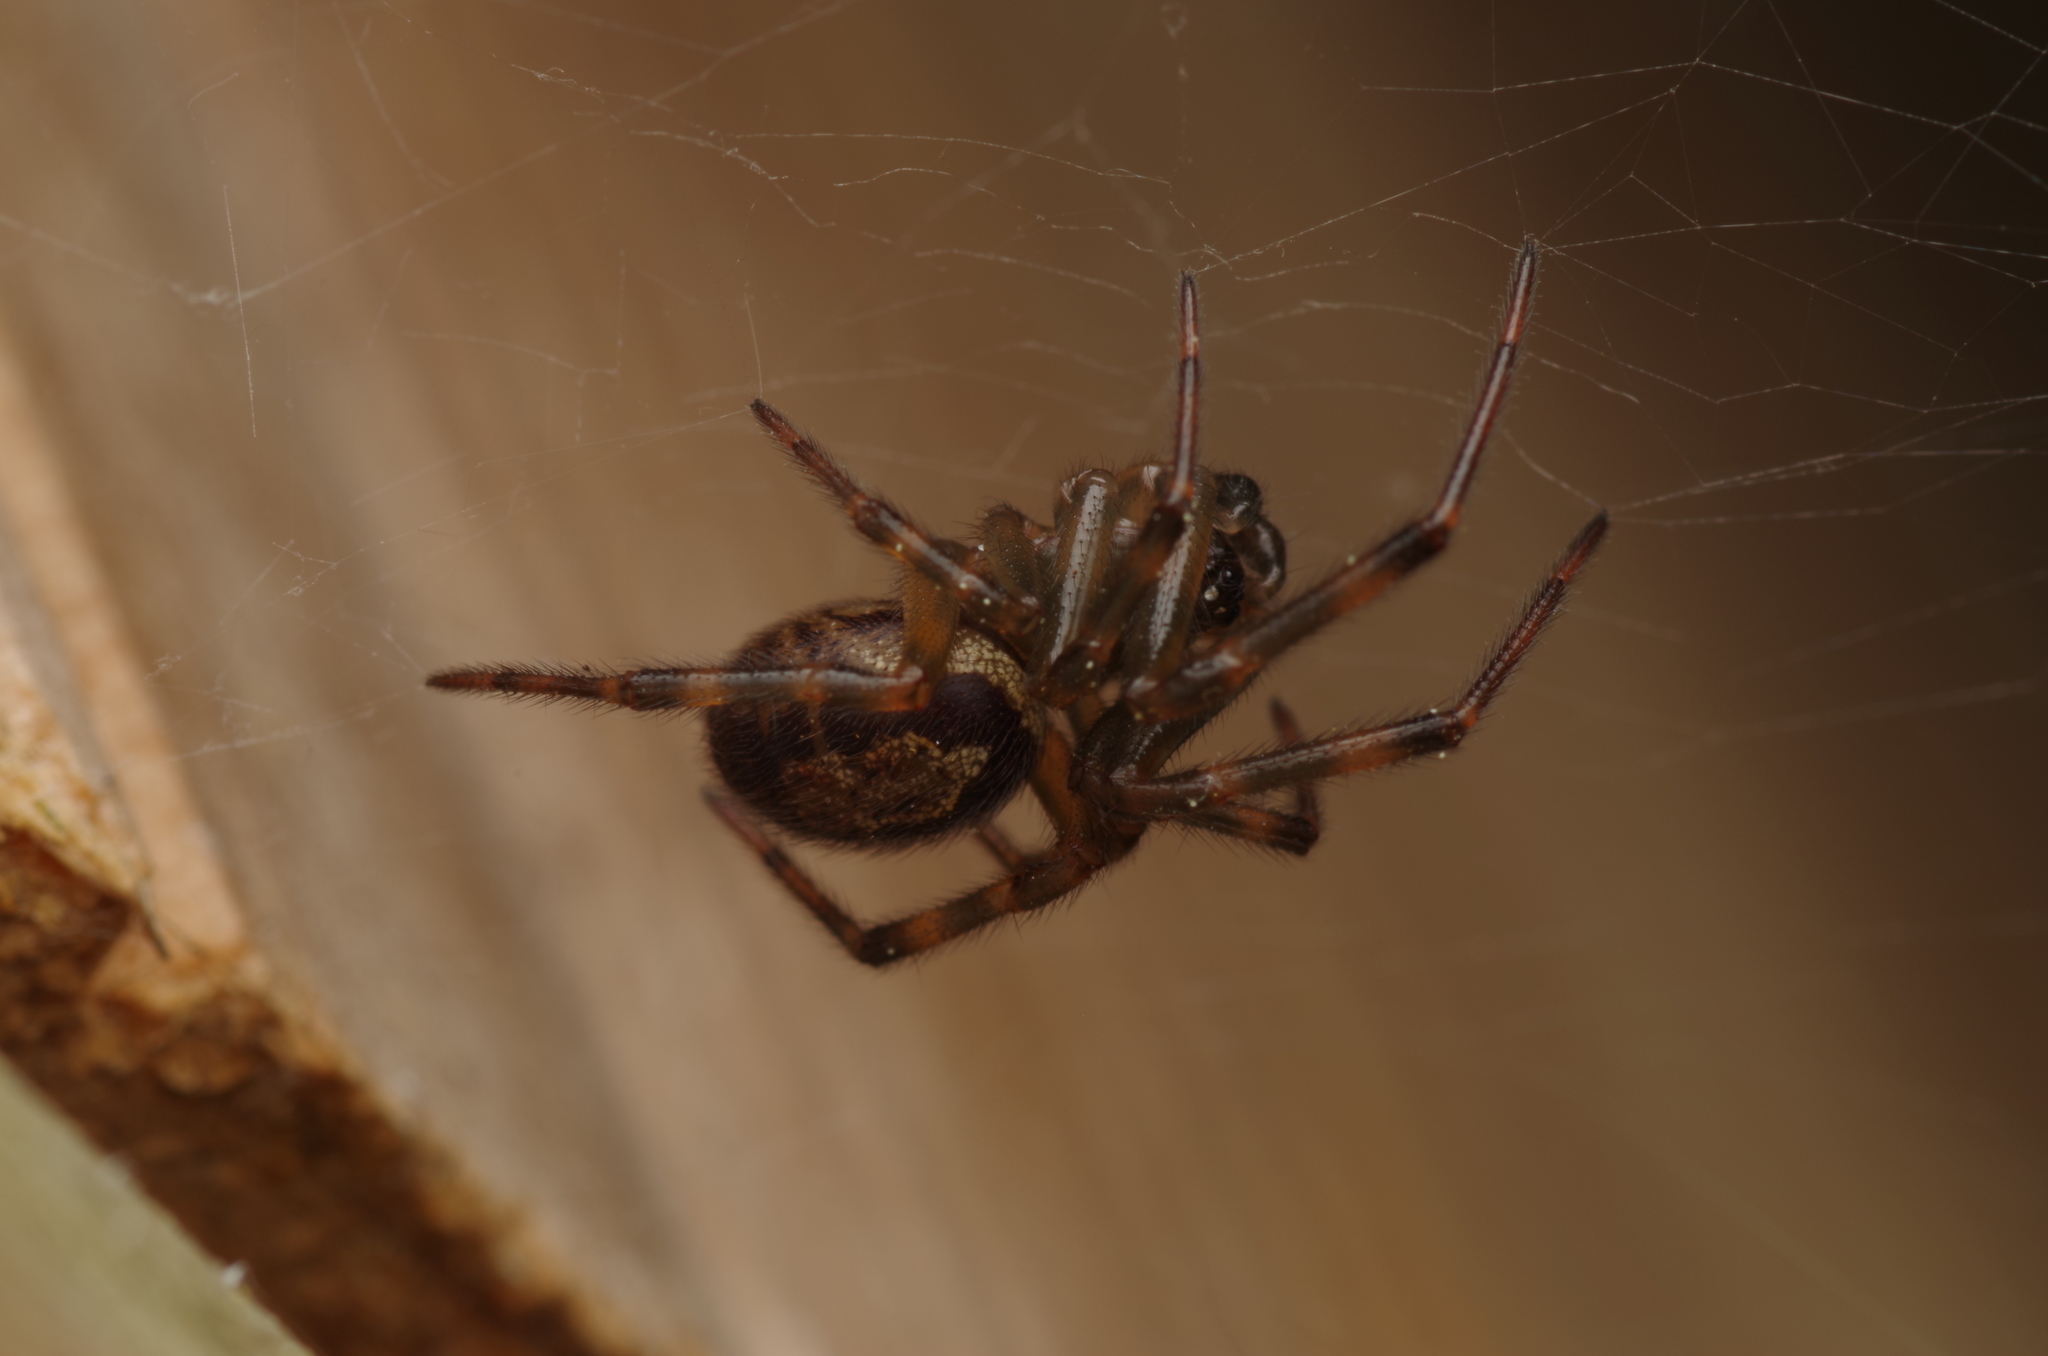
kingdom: Animalia
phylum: Arthropoda
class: Arachnida
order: Araneae
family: Theridiidae
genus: Steatoda
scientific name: Steatoda nobilis
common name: Cobweb weaver
